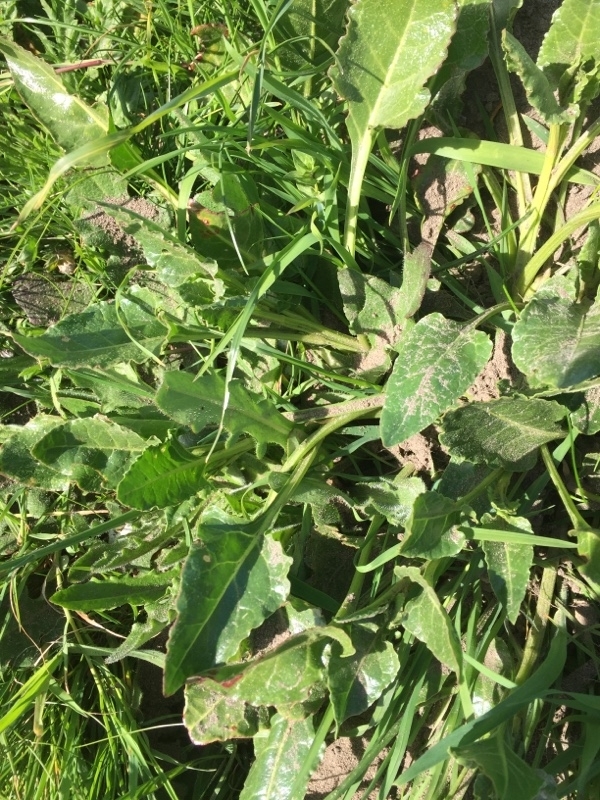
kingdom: Plantae
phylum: Tracheophyta
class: Magnoliopsida
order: Caryophyllales
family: Amaranthaceae
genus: Beta
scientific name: Beta vulgaris
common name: Beet
